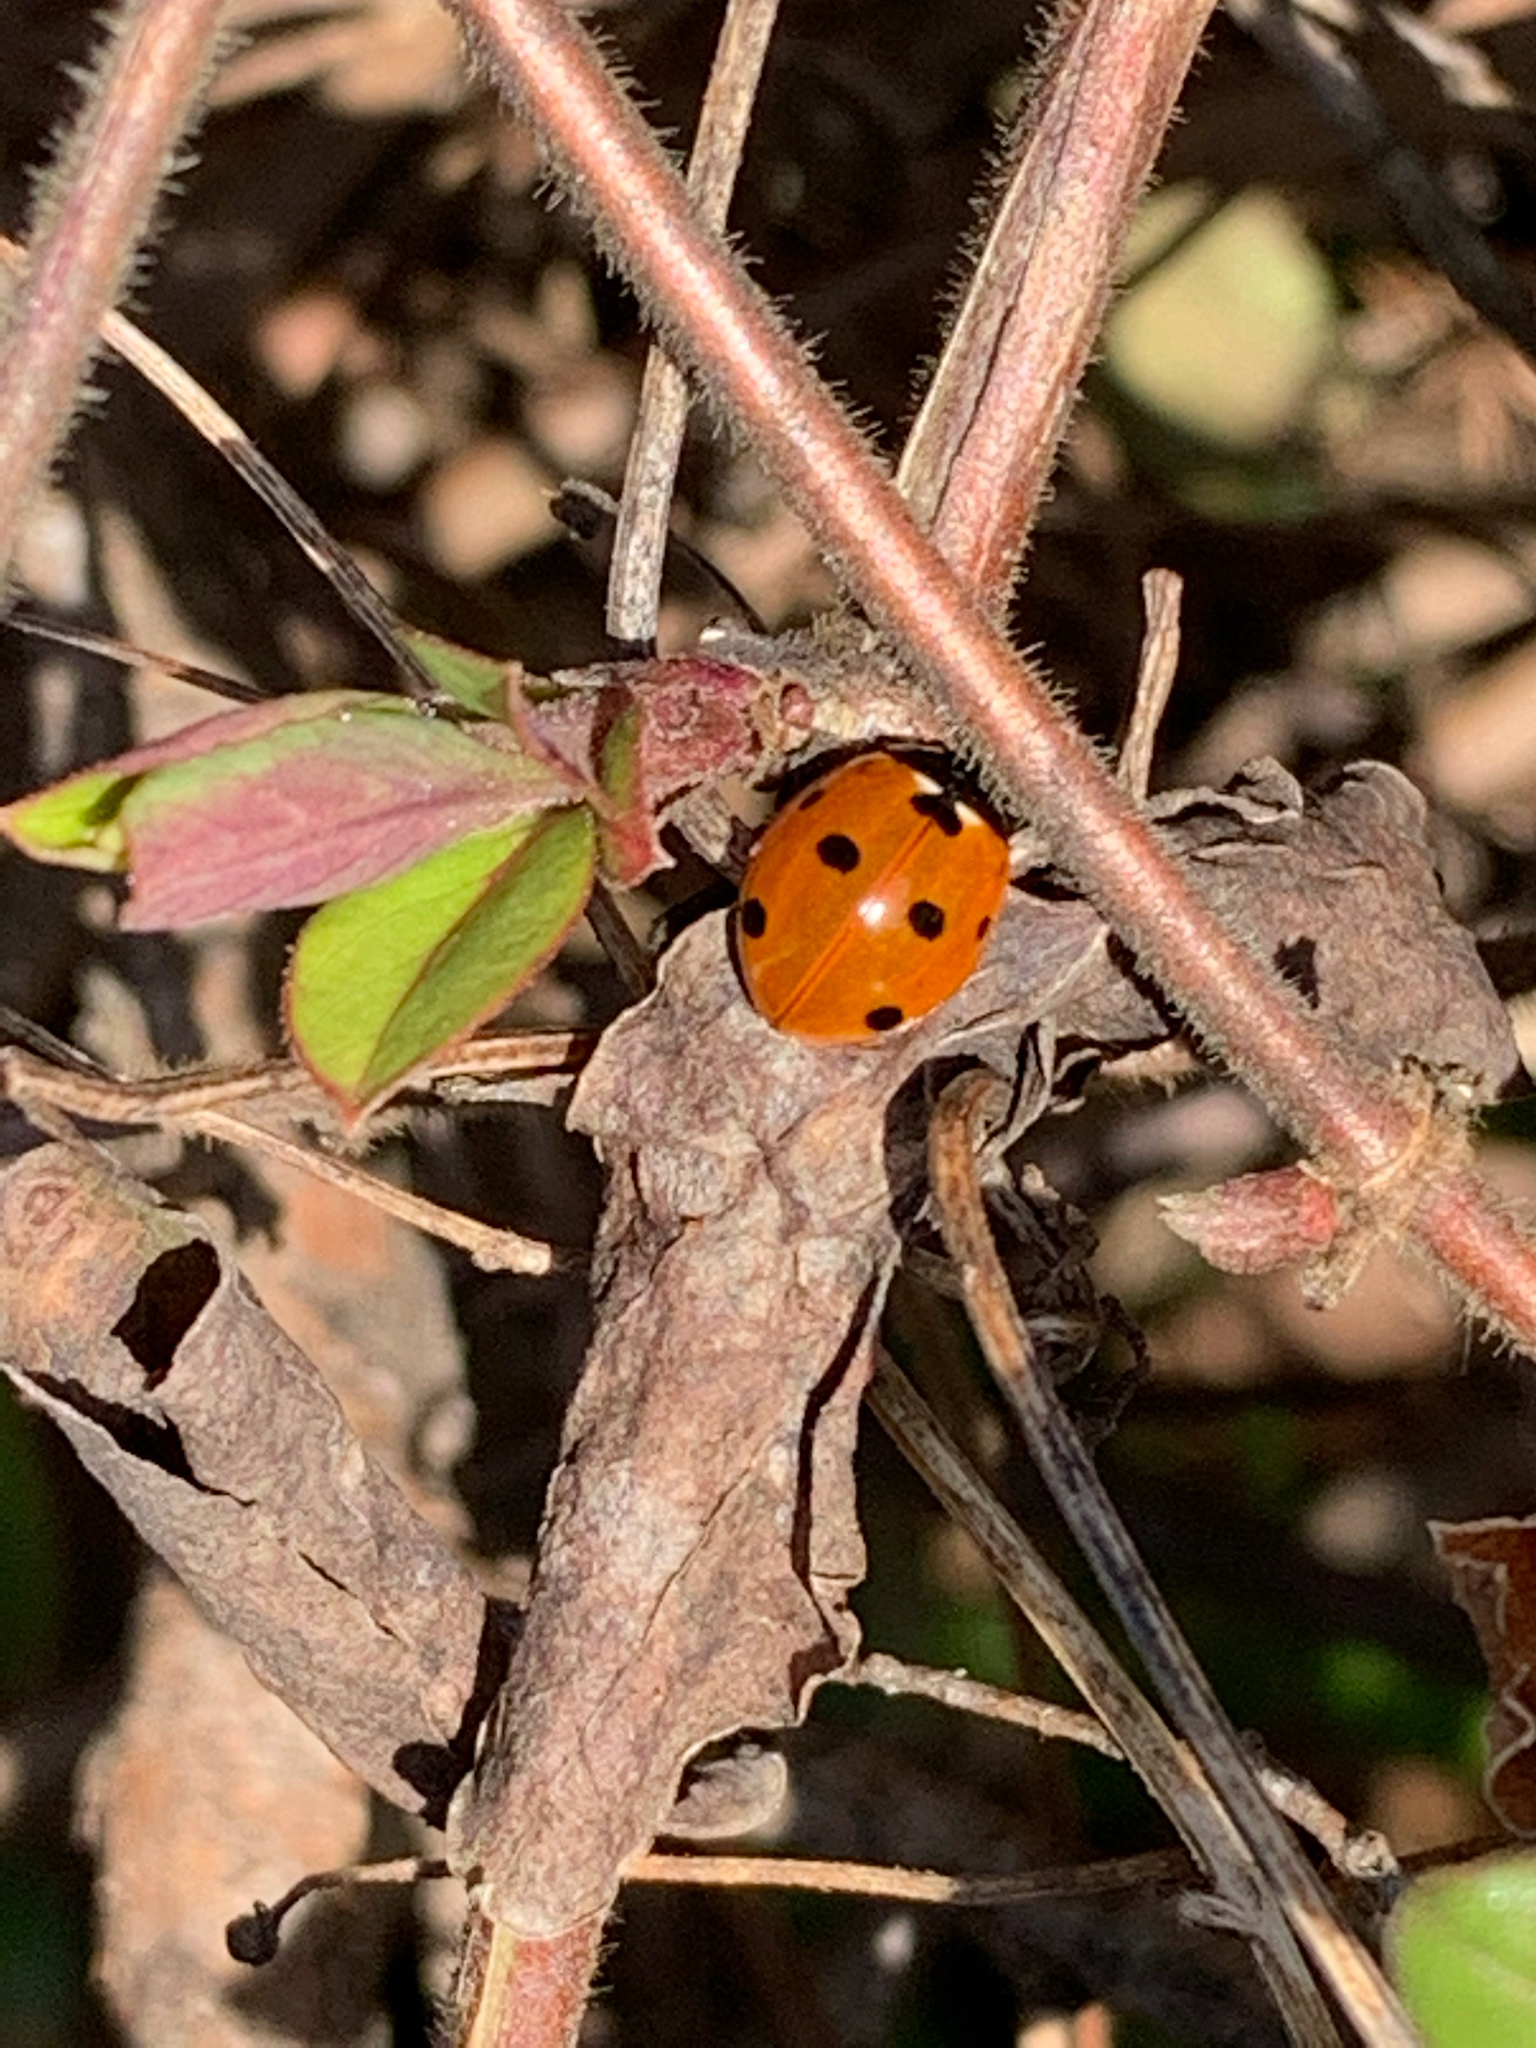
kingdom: Animalia
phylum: Arthropoda
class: Insecta
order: Coleoptera
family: Coccinellidae
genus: Coccinella
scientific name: Coccinella septempunctata
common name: Sevenspotted lady beetle
